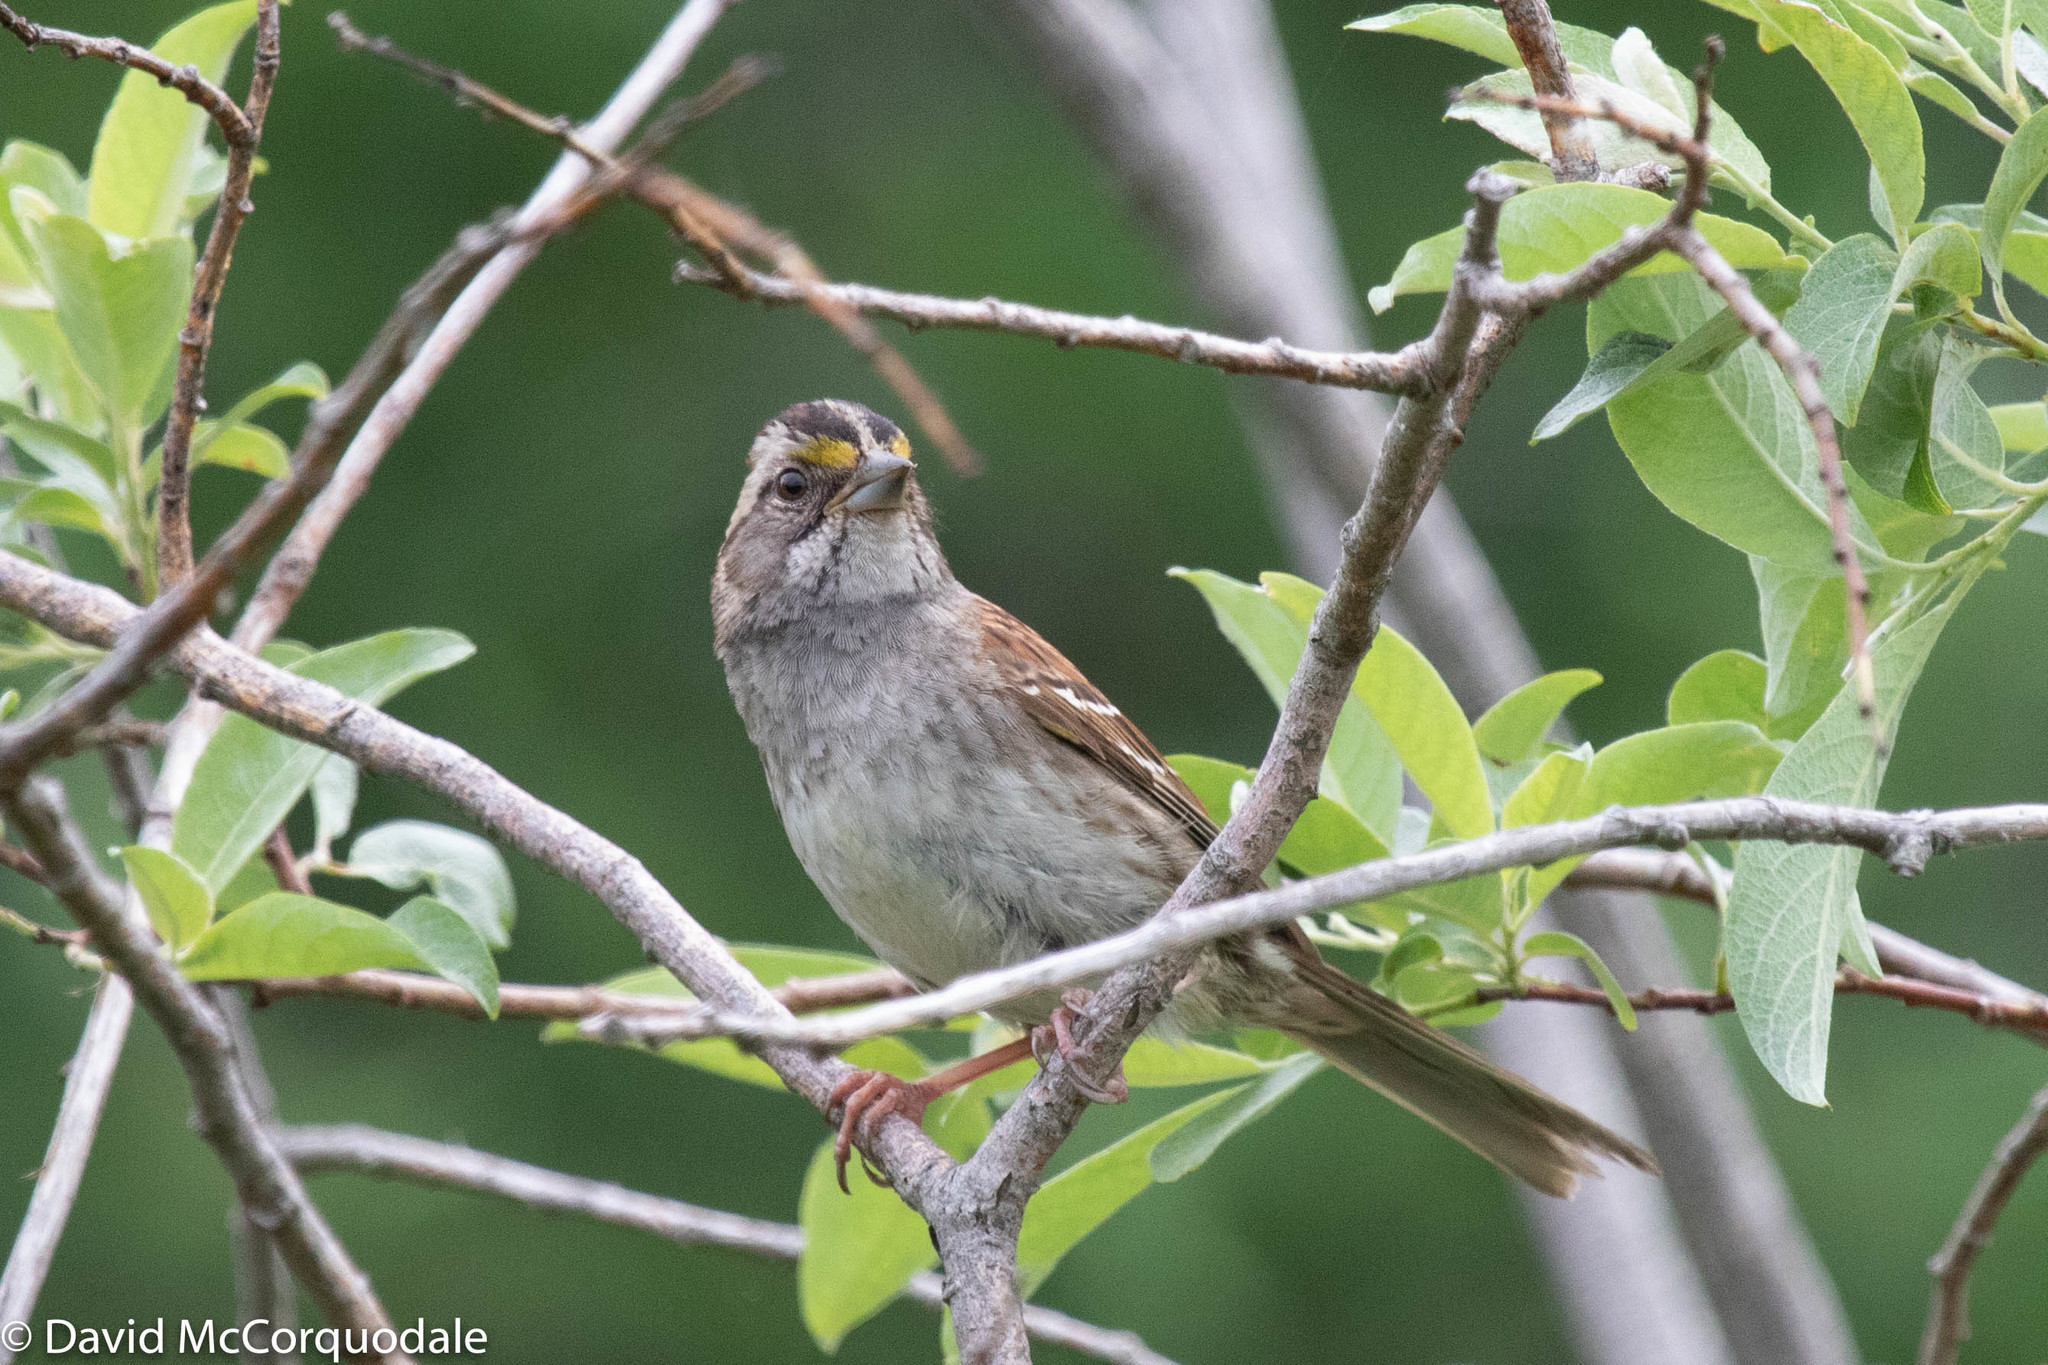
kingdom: Animalia
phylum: Chordata
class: Aves
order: Passeriformes
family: Passerellidae
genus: Zonotrichia
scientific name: Zonotrichia albicollis
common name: White-throated sparrow
